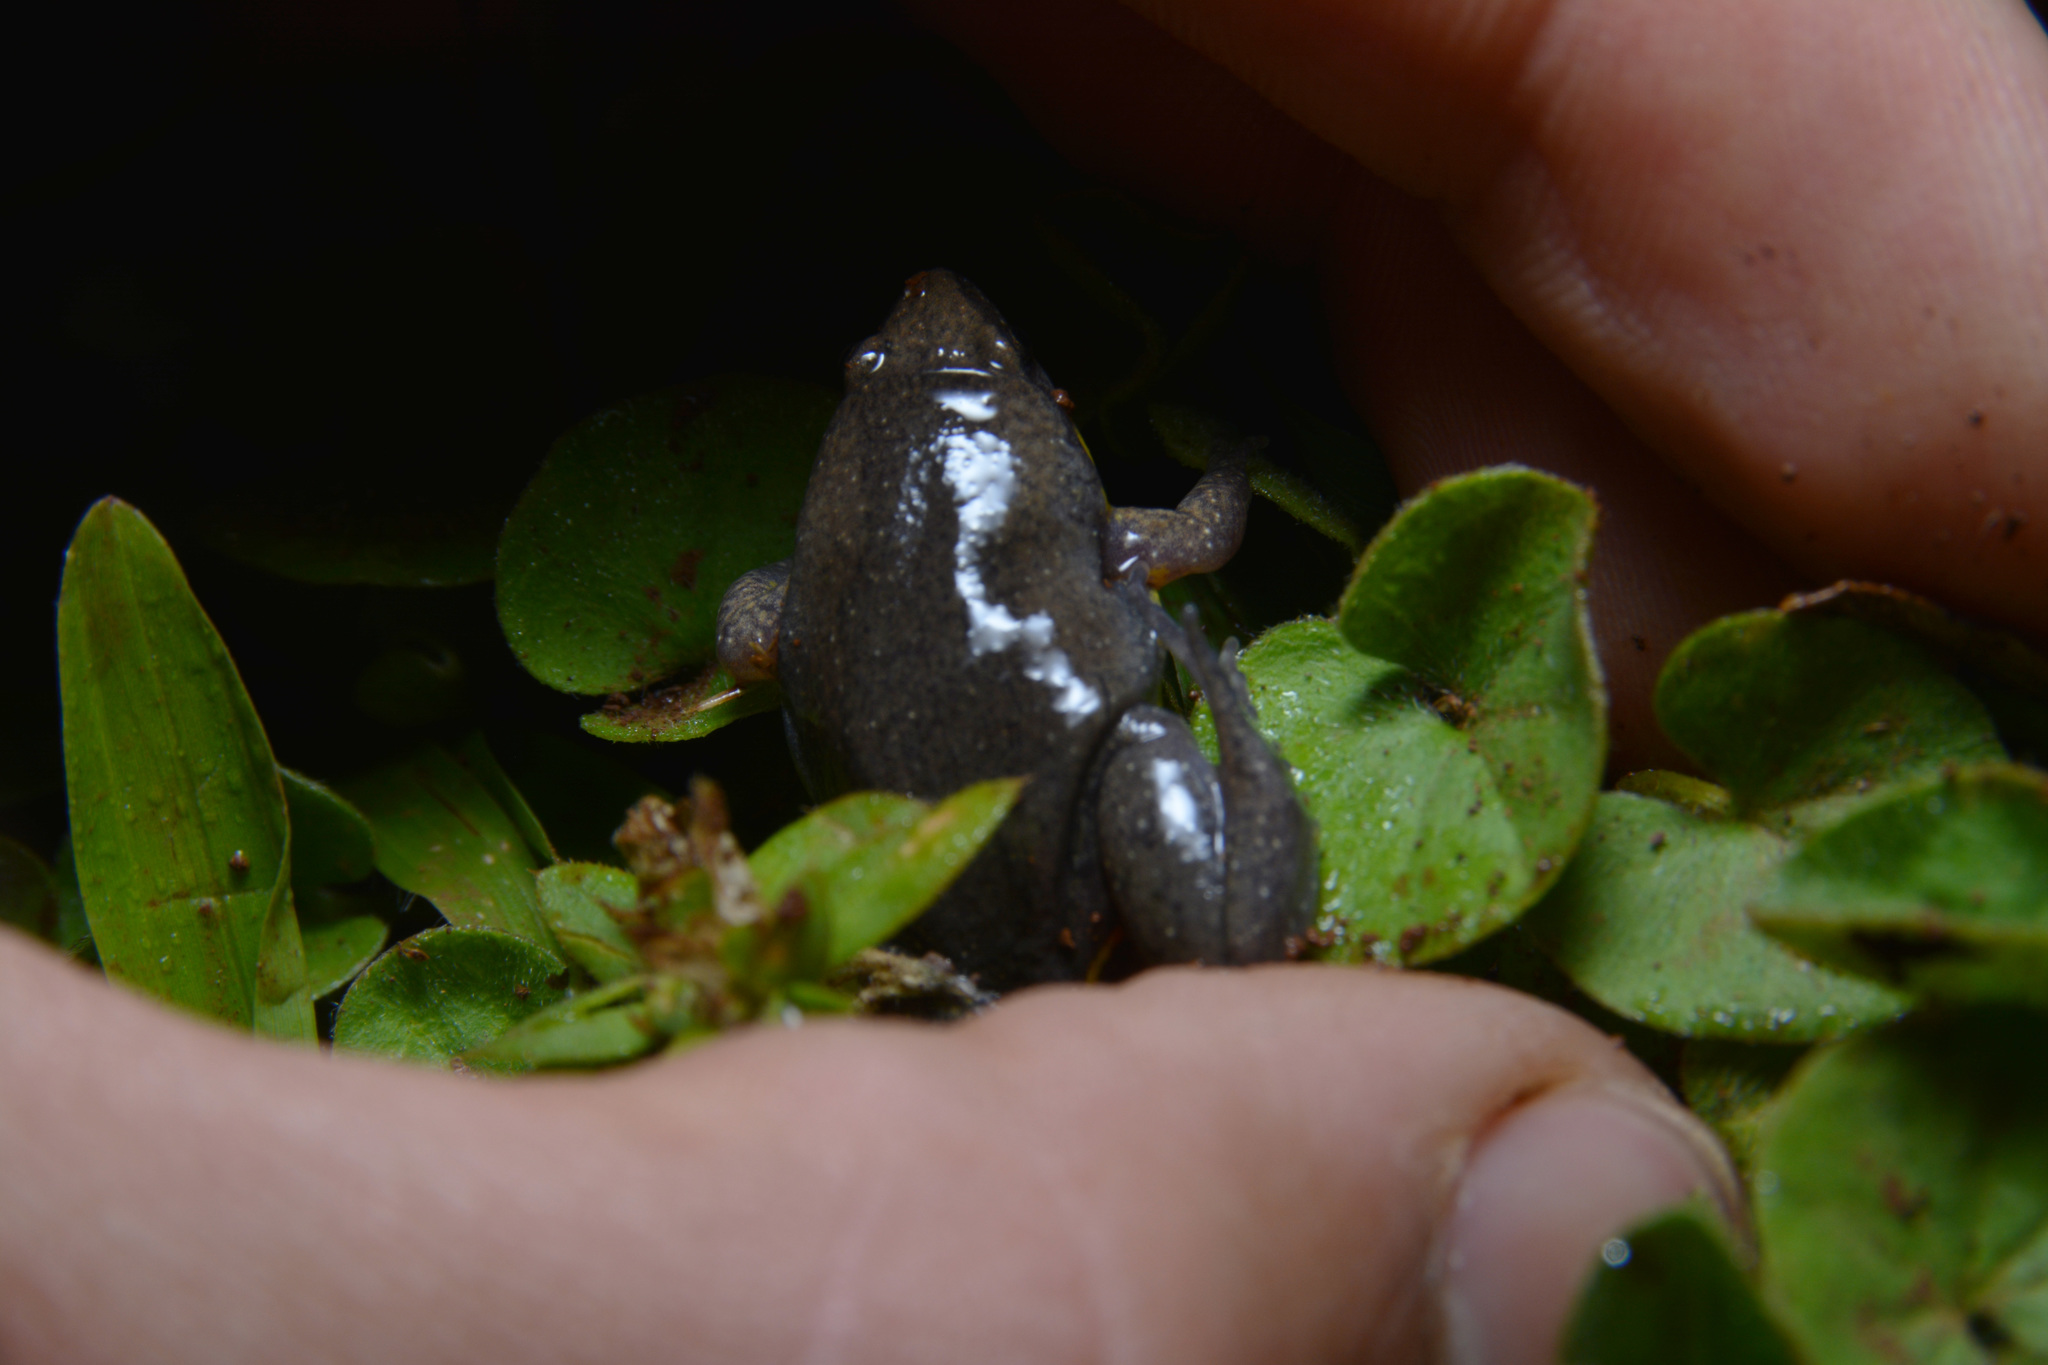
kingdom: Animalia
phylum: Chordata
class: Amphibia
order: Anura
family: Microhylidae
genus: Elachistocleis
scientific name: Elachistocleis bicolor
